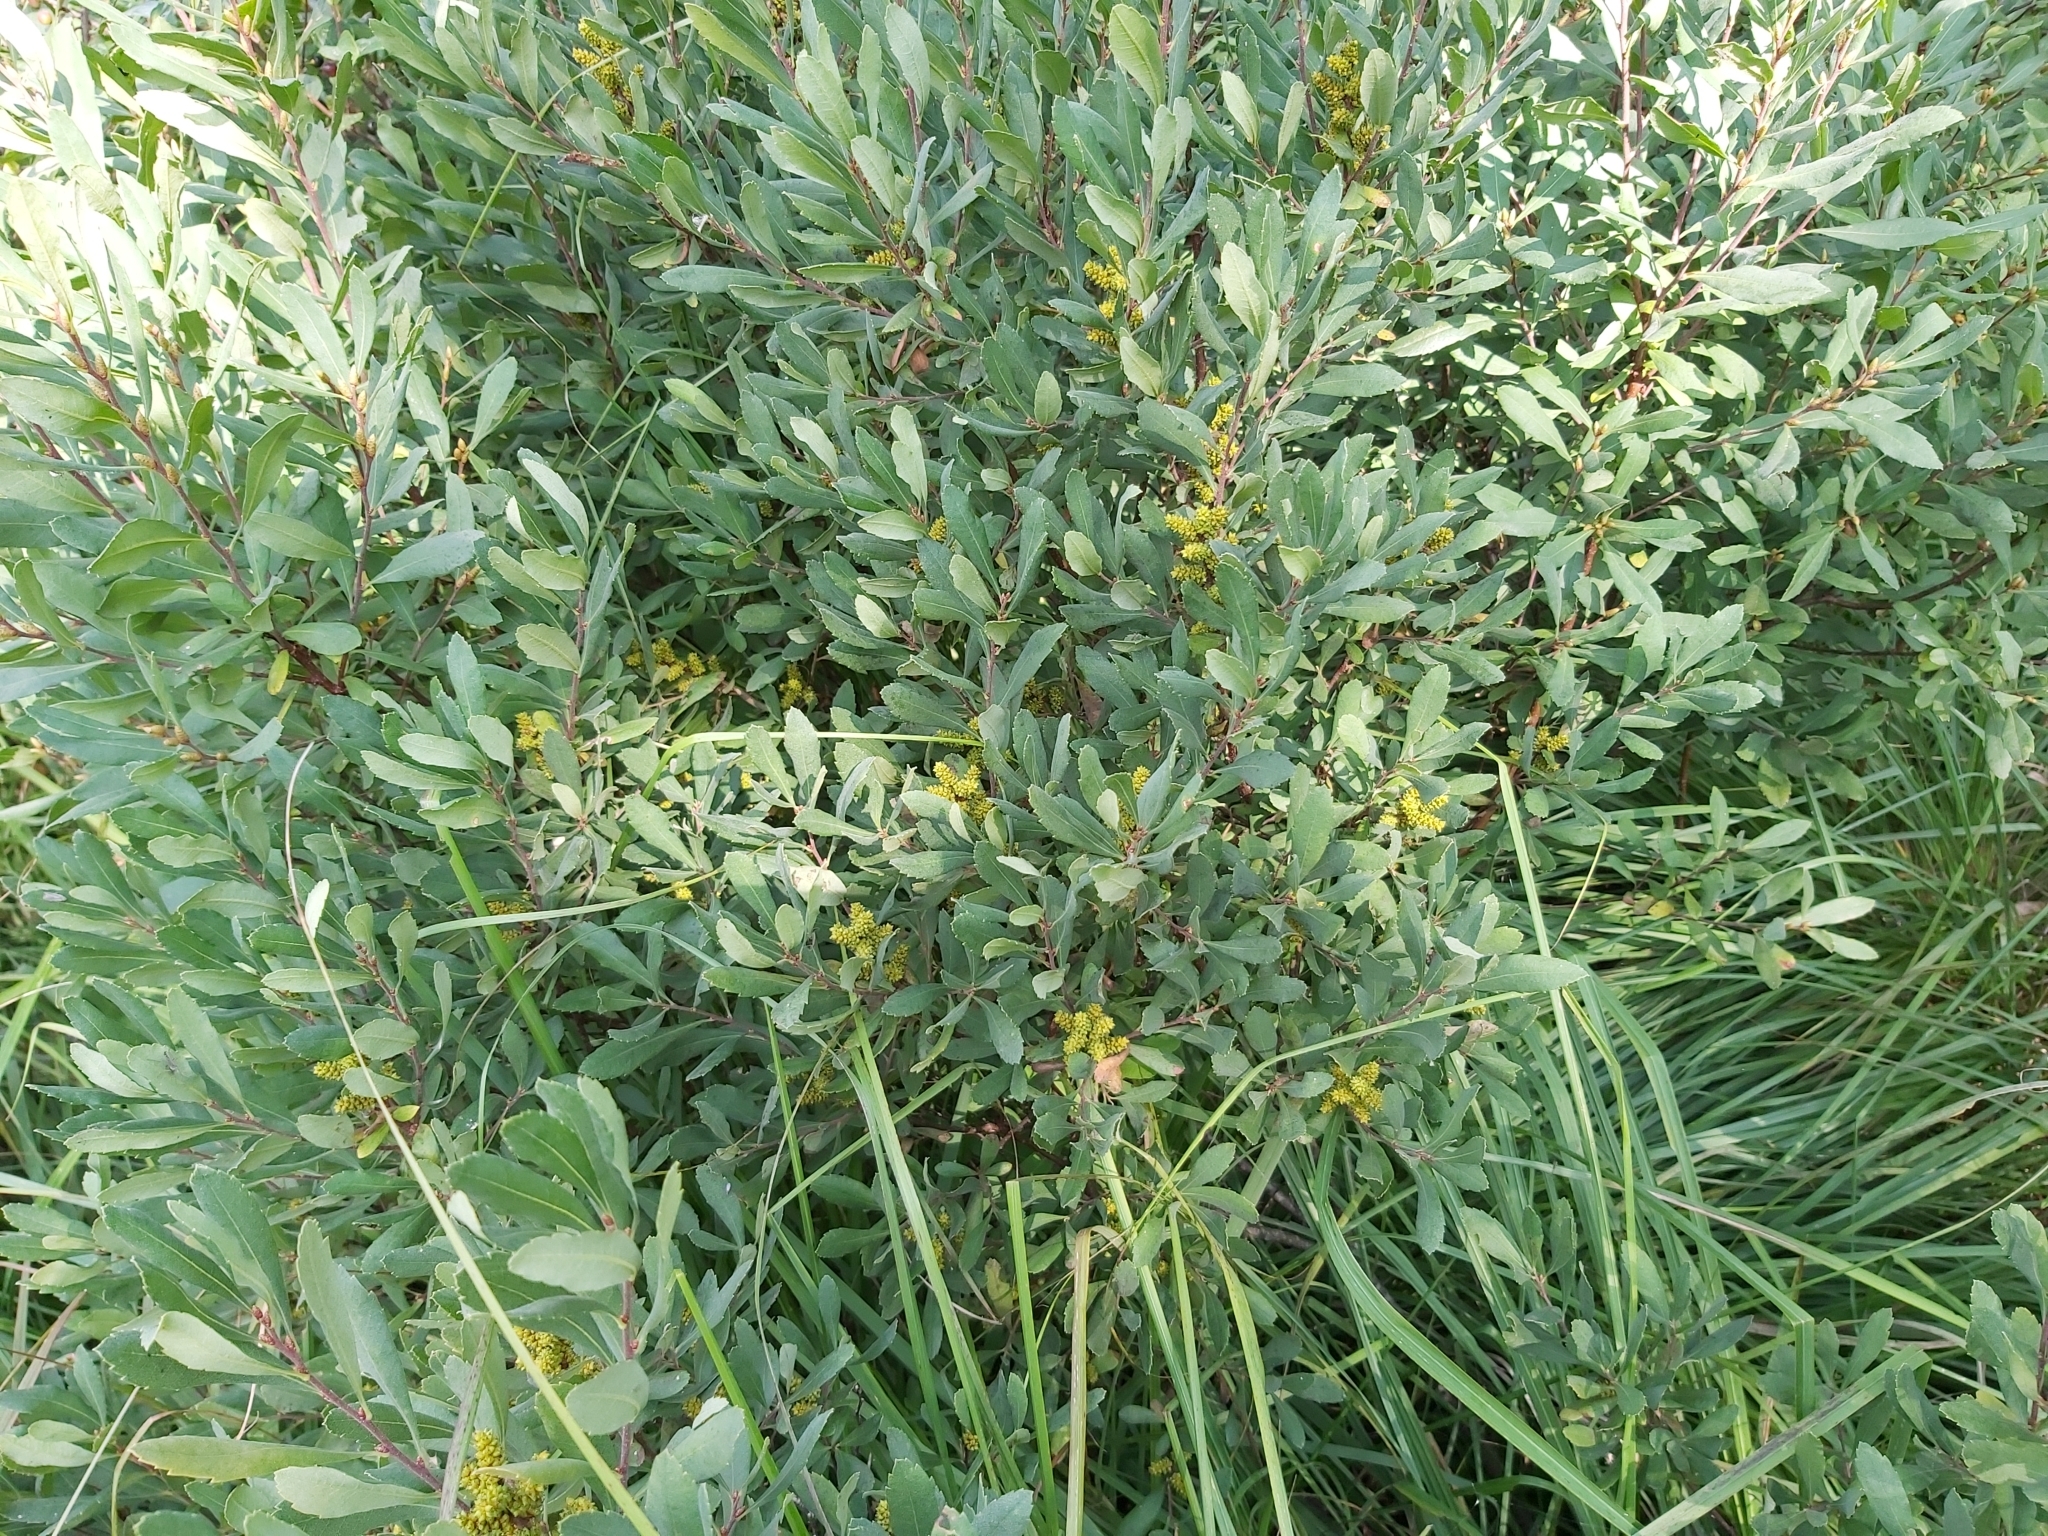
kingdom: Plantae
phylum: Tracheophyta
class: Magnoliopsida
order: Fagales
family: Myricaceae
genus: Myrica
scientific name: Myrica gale
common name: Sweet gale
